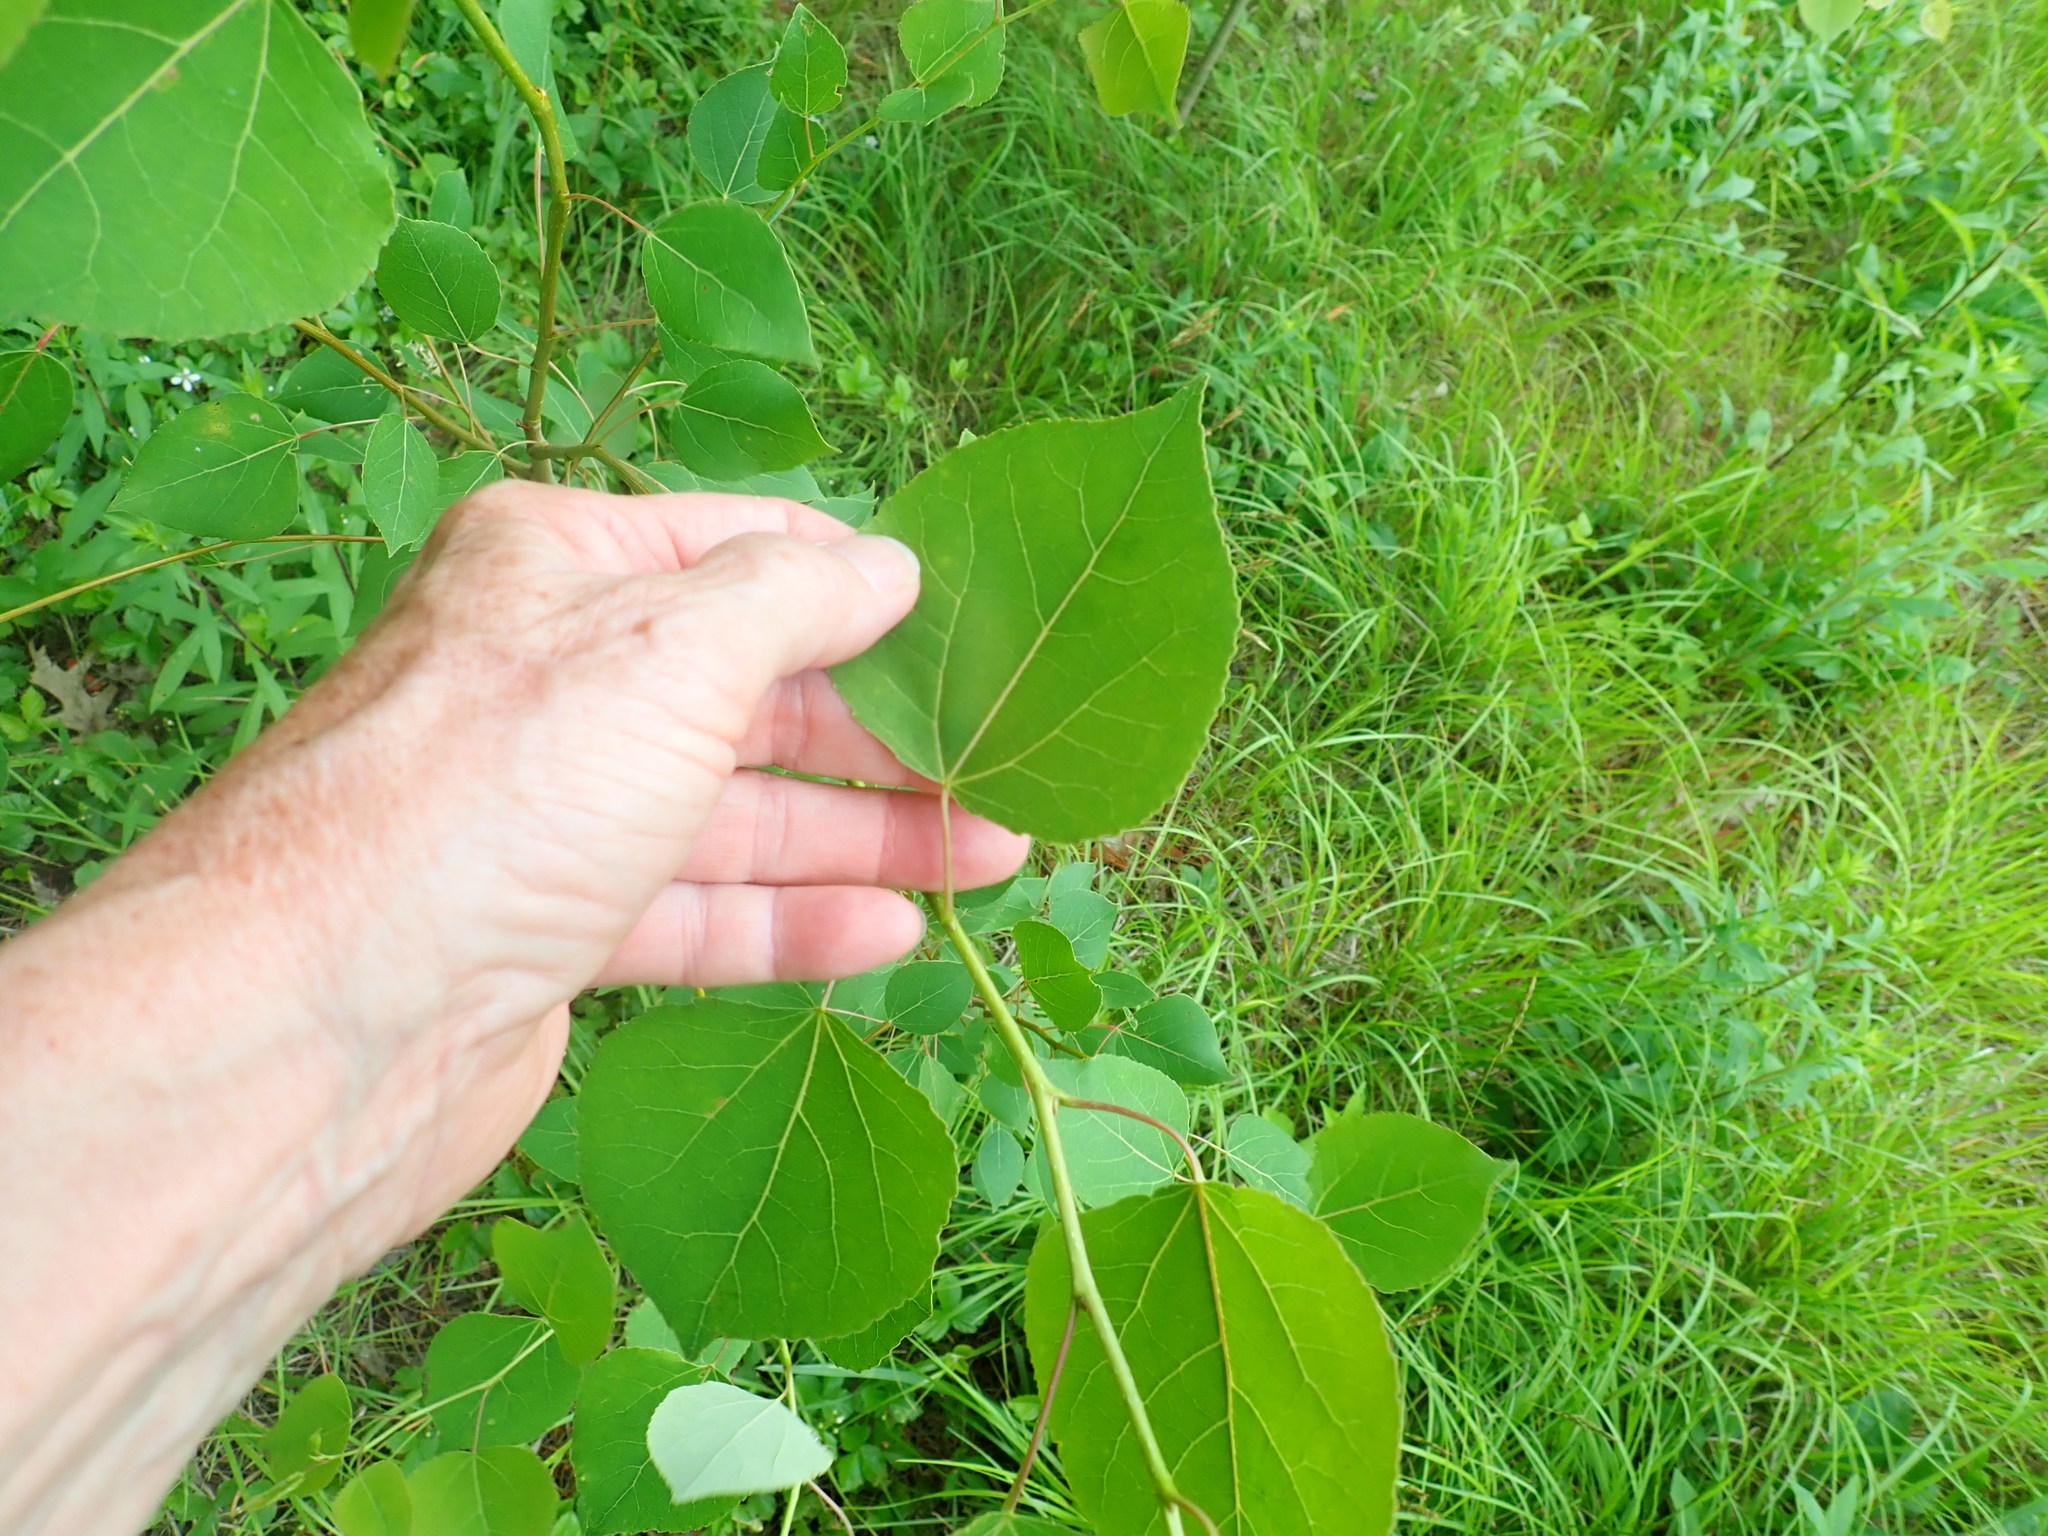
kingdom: Plantae
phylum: Tracheophyta
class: Magnoliopsida
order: Malpighiales
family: Salicaceae
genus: Populus
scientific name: Populus tremuloides
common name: Quaking aspen
